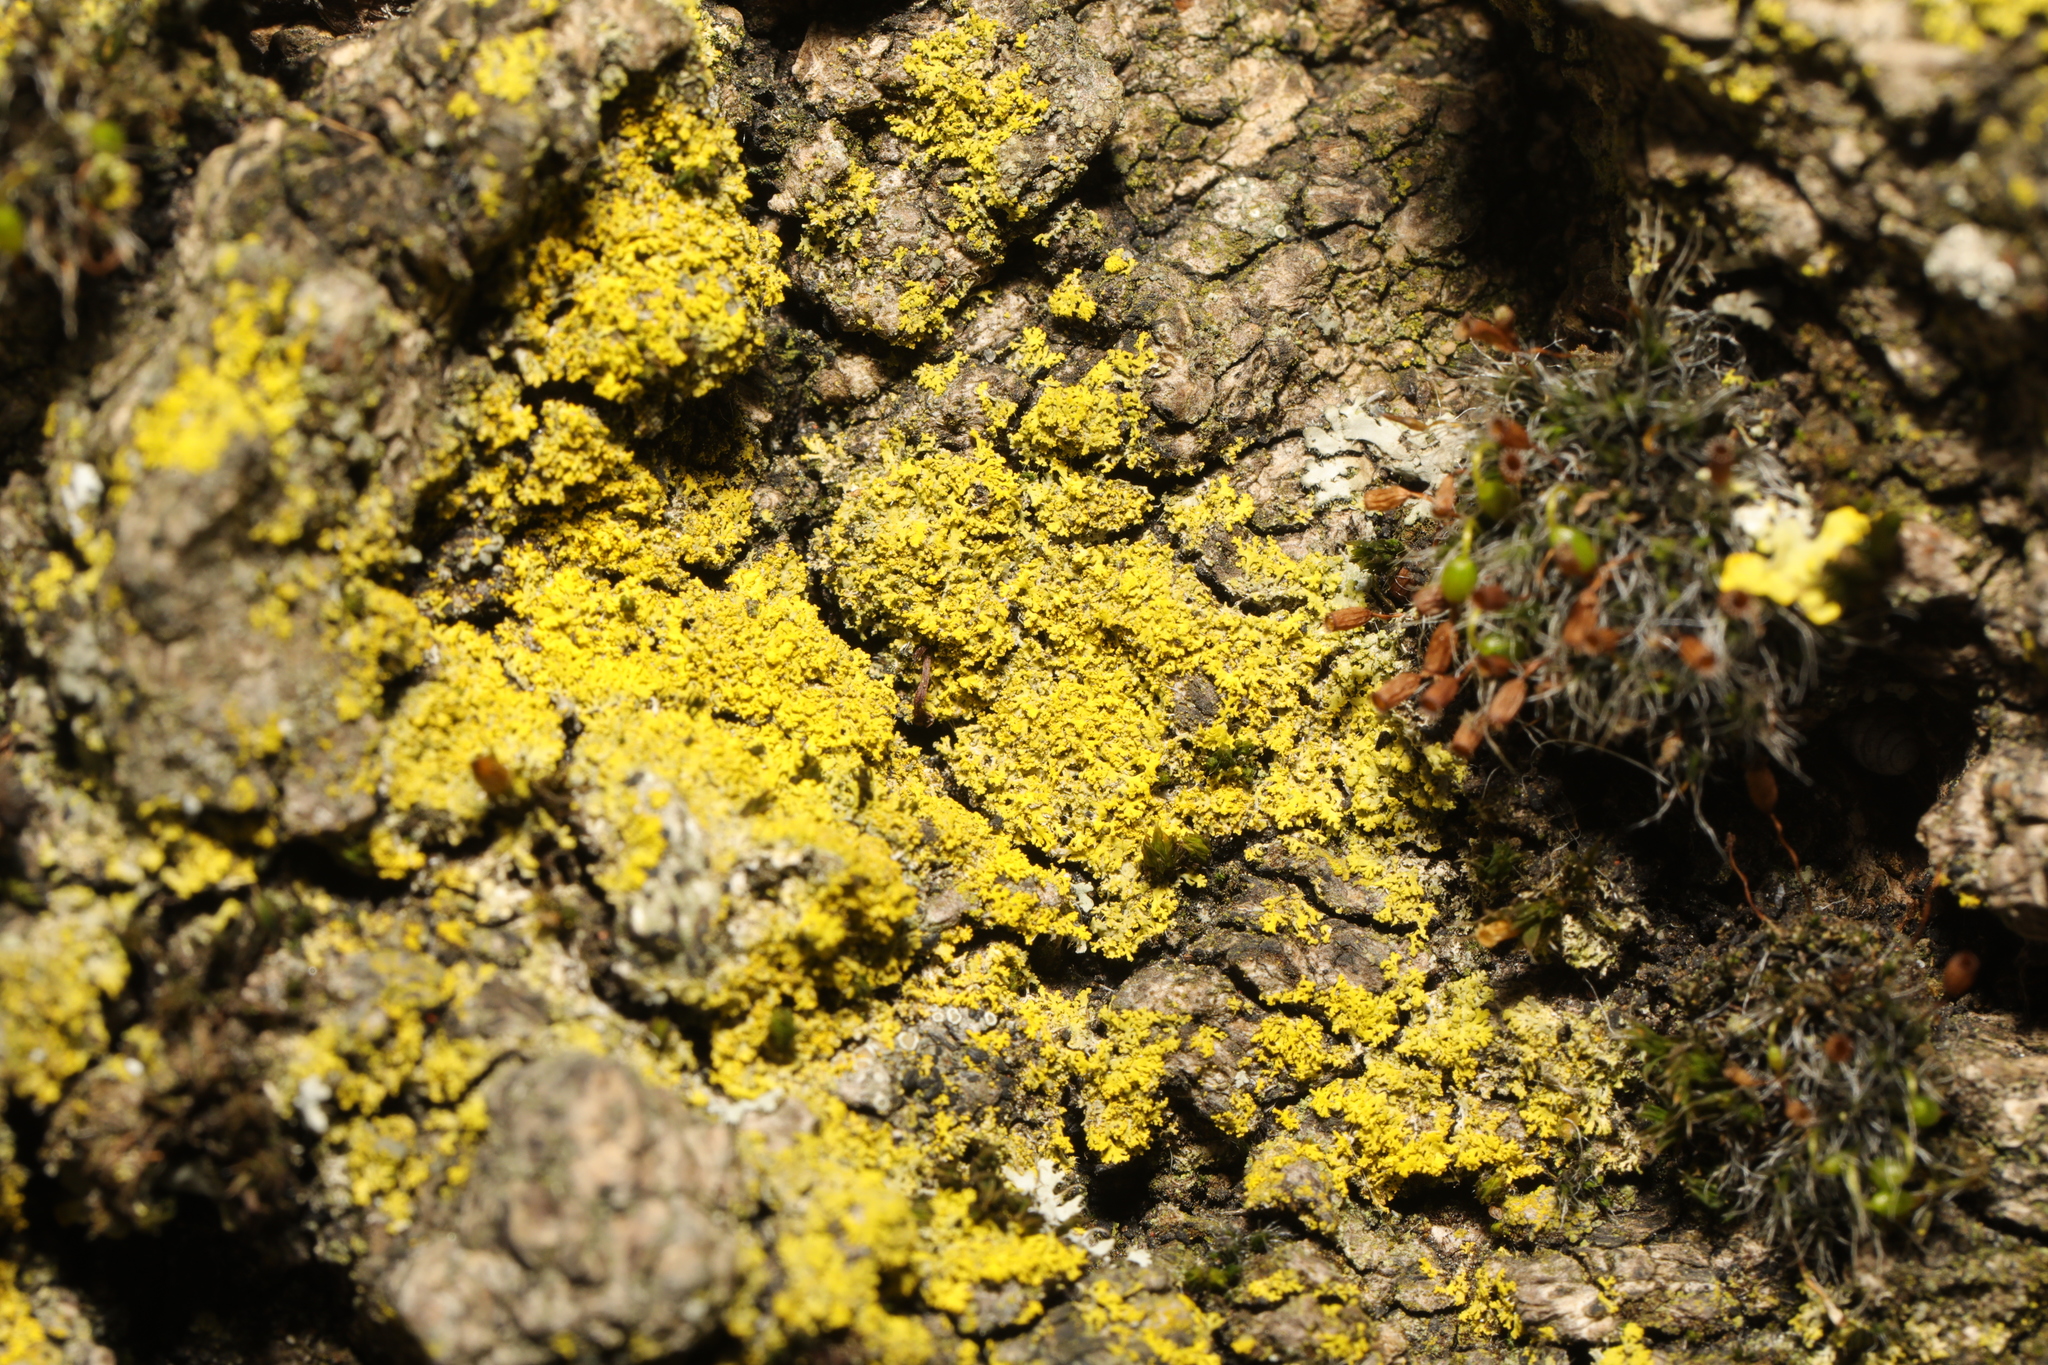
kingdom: Fungi
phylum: Ascomycota
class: Candelariomycetes
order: Candelariales
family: Candelariaceae
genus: Candelaria
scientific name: Candelaria concolor
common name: Candleflame lichen
